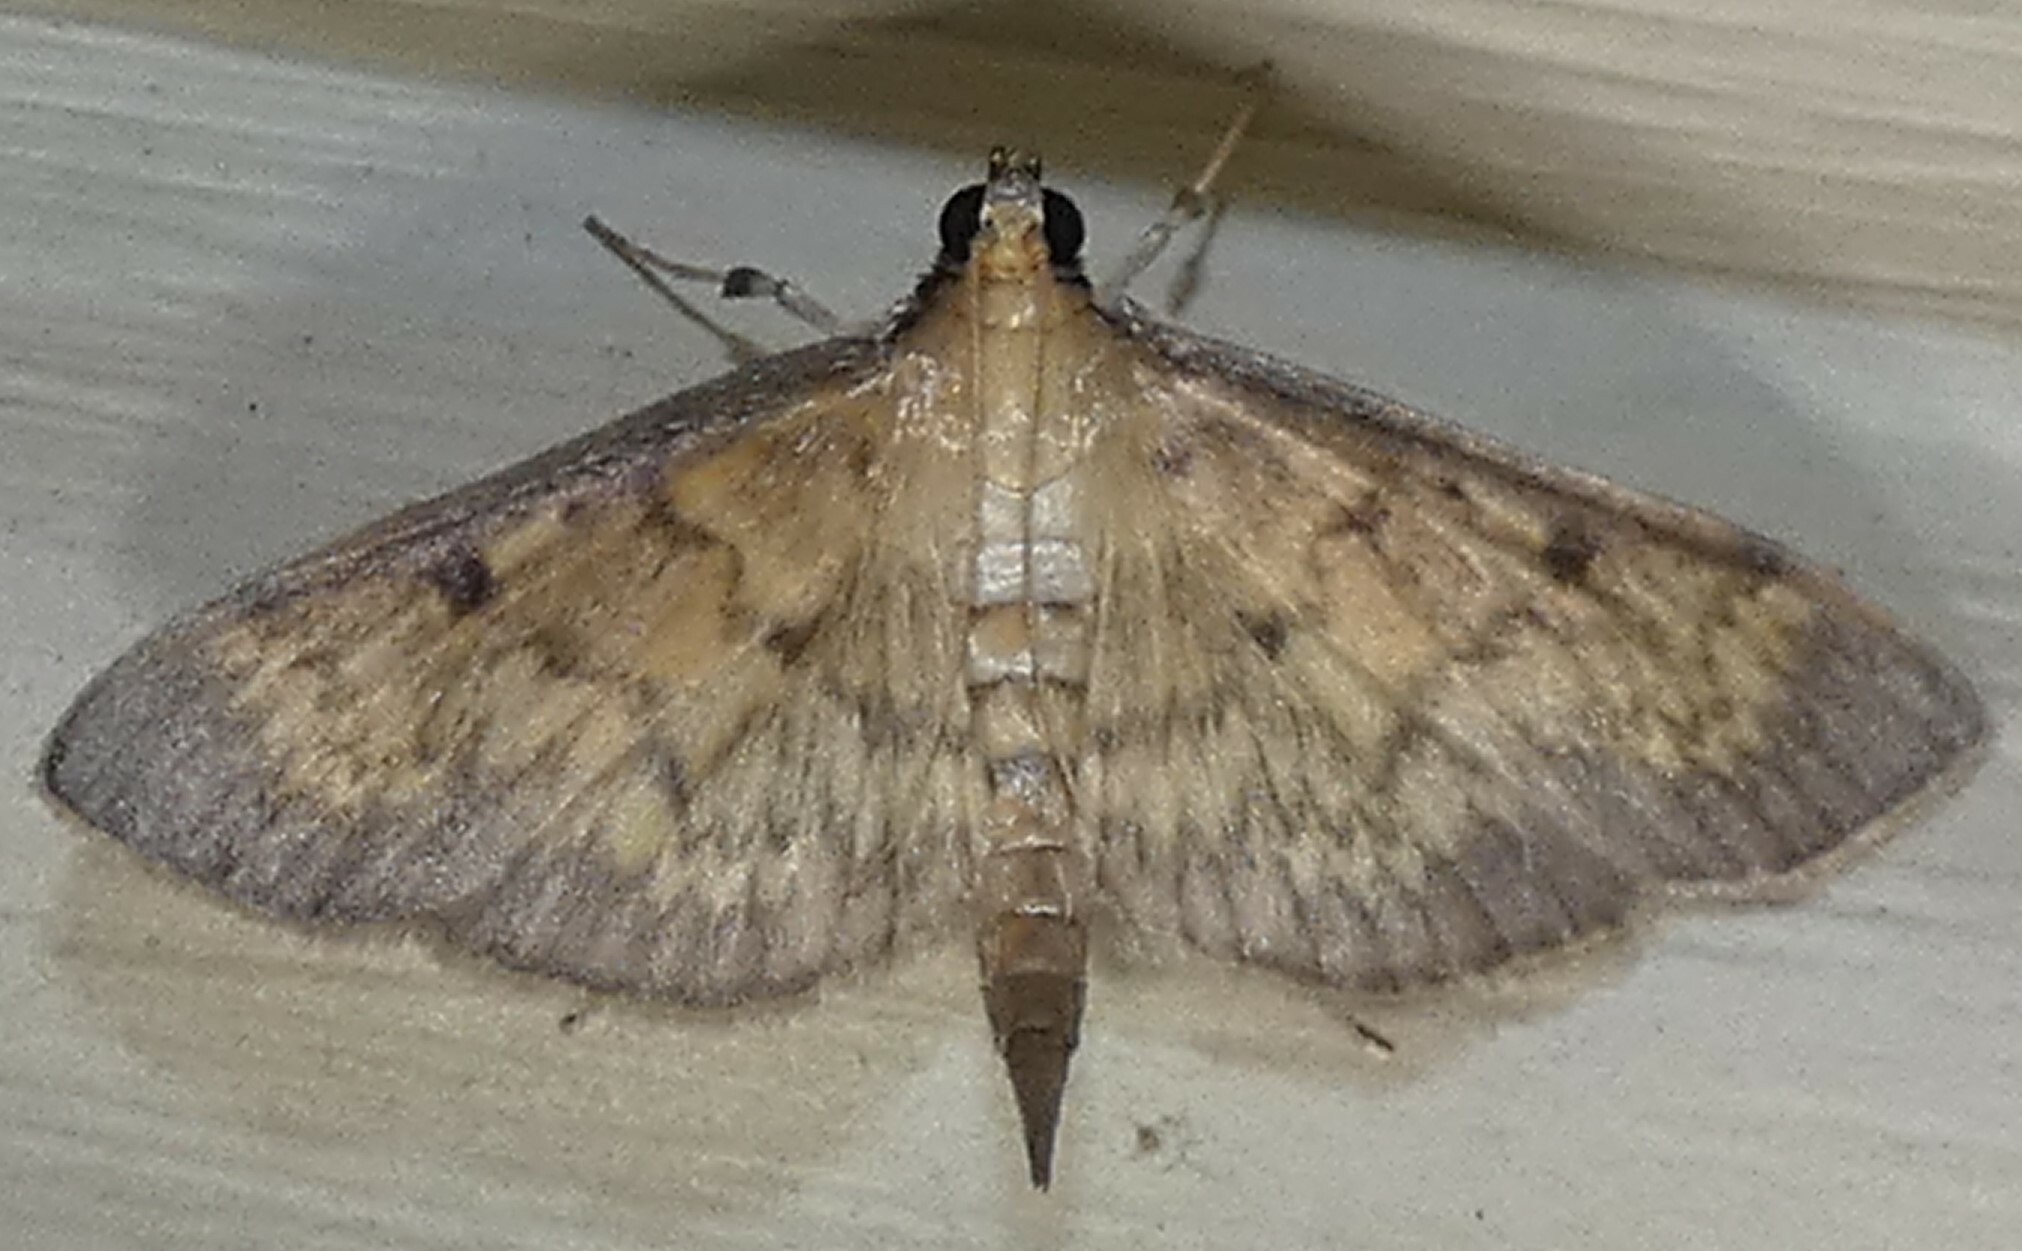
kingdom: Animalia
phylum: Arthropoda
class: Insecta
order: Lepidoptera
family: Crambidae
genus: Herpetogramma
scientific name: Herpetogramma fluctuosalis
